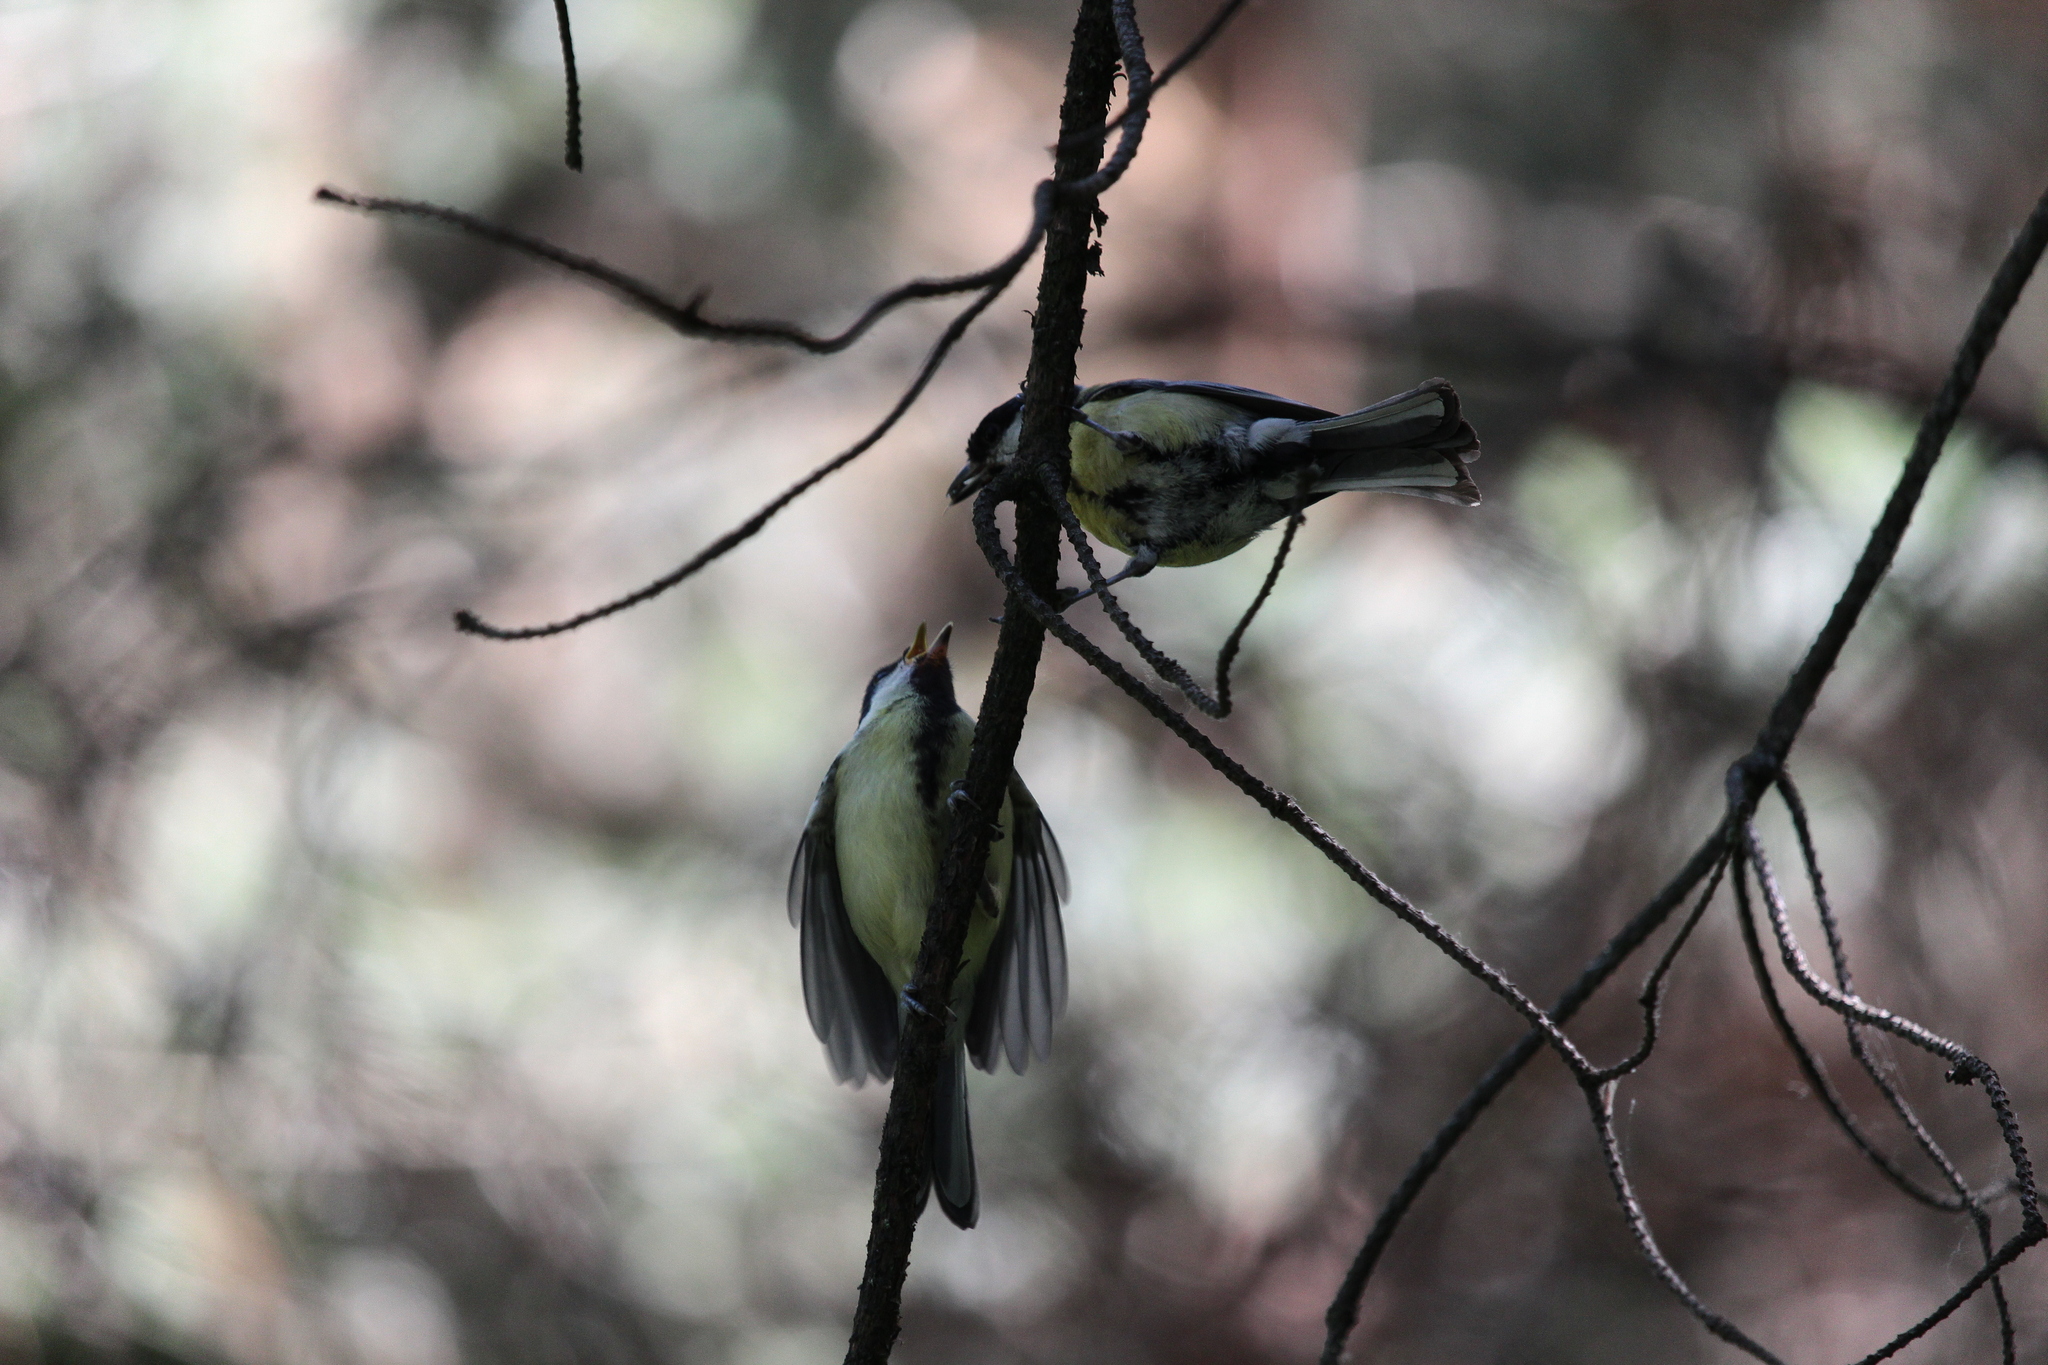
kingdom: Animalia
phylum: Chordata
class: Aves
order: Passeriformes
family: Paridae
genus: Parus
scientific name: Parus major
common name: Great tit
